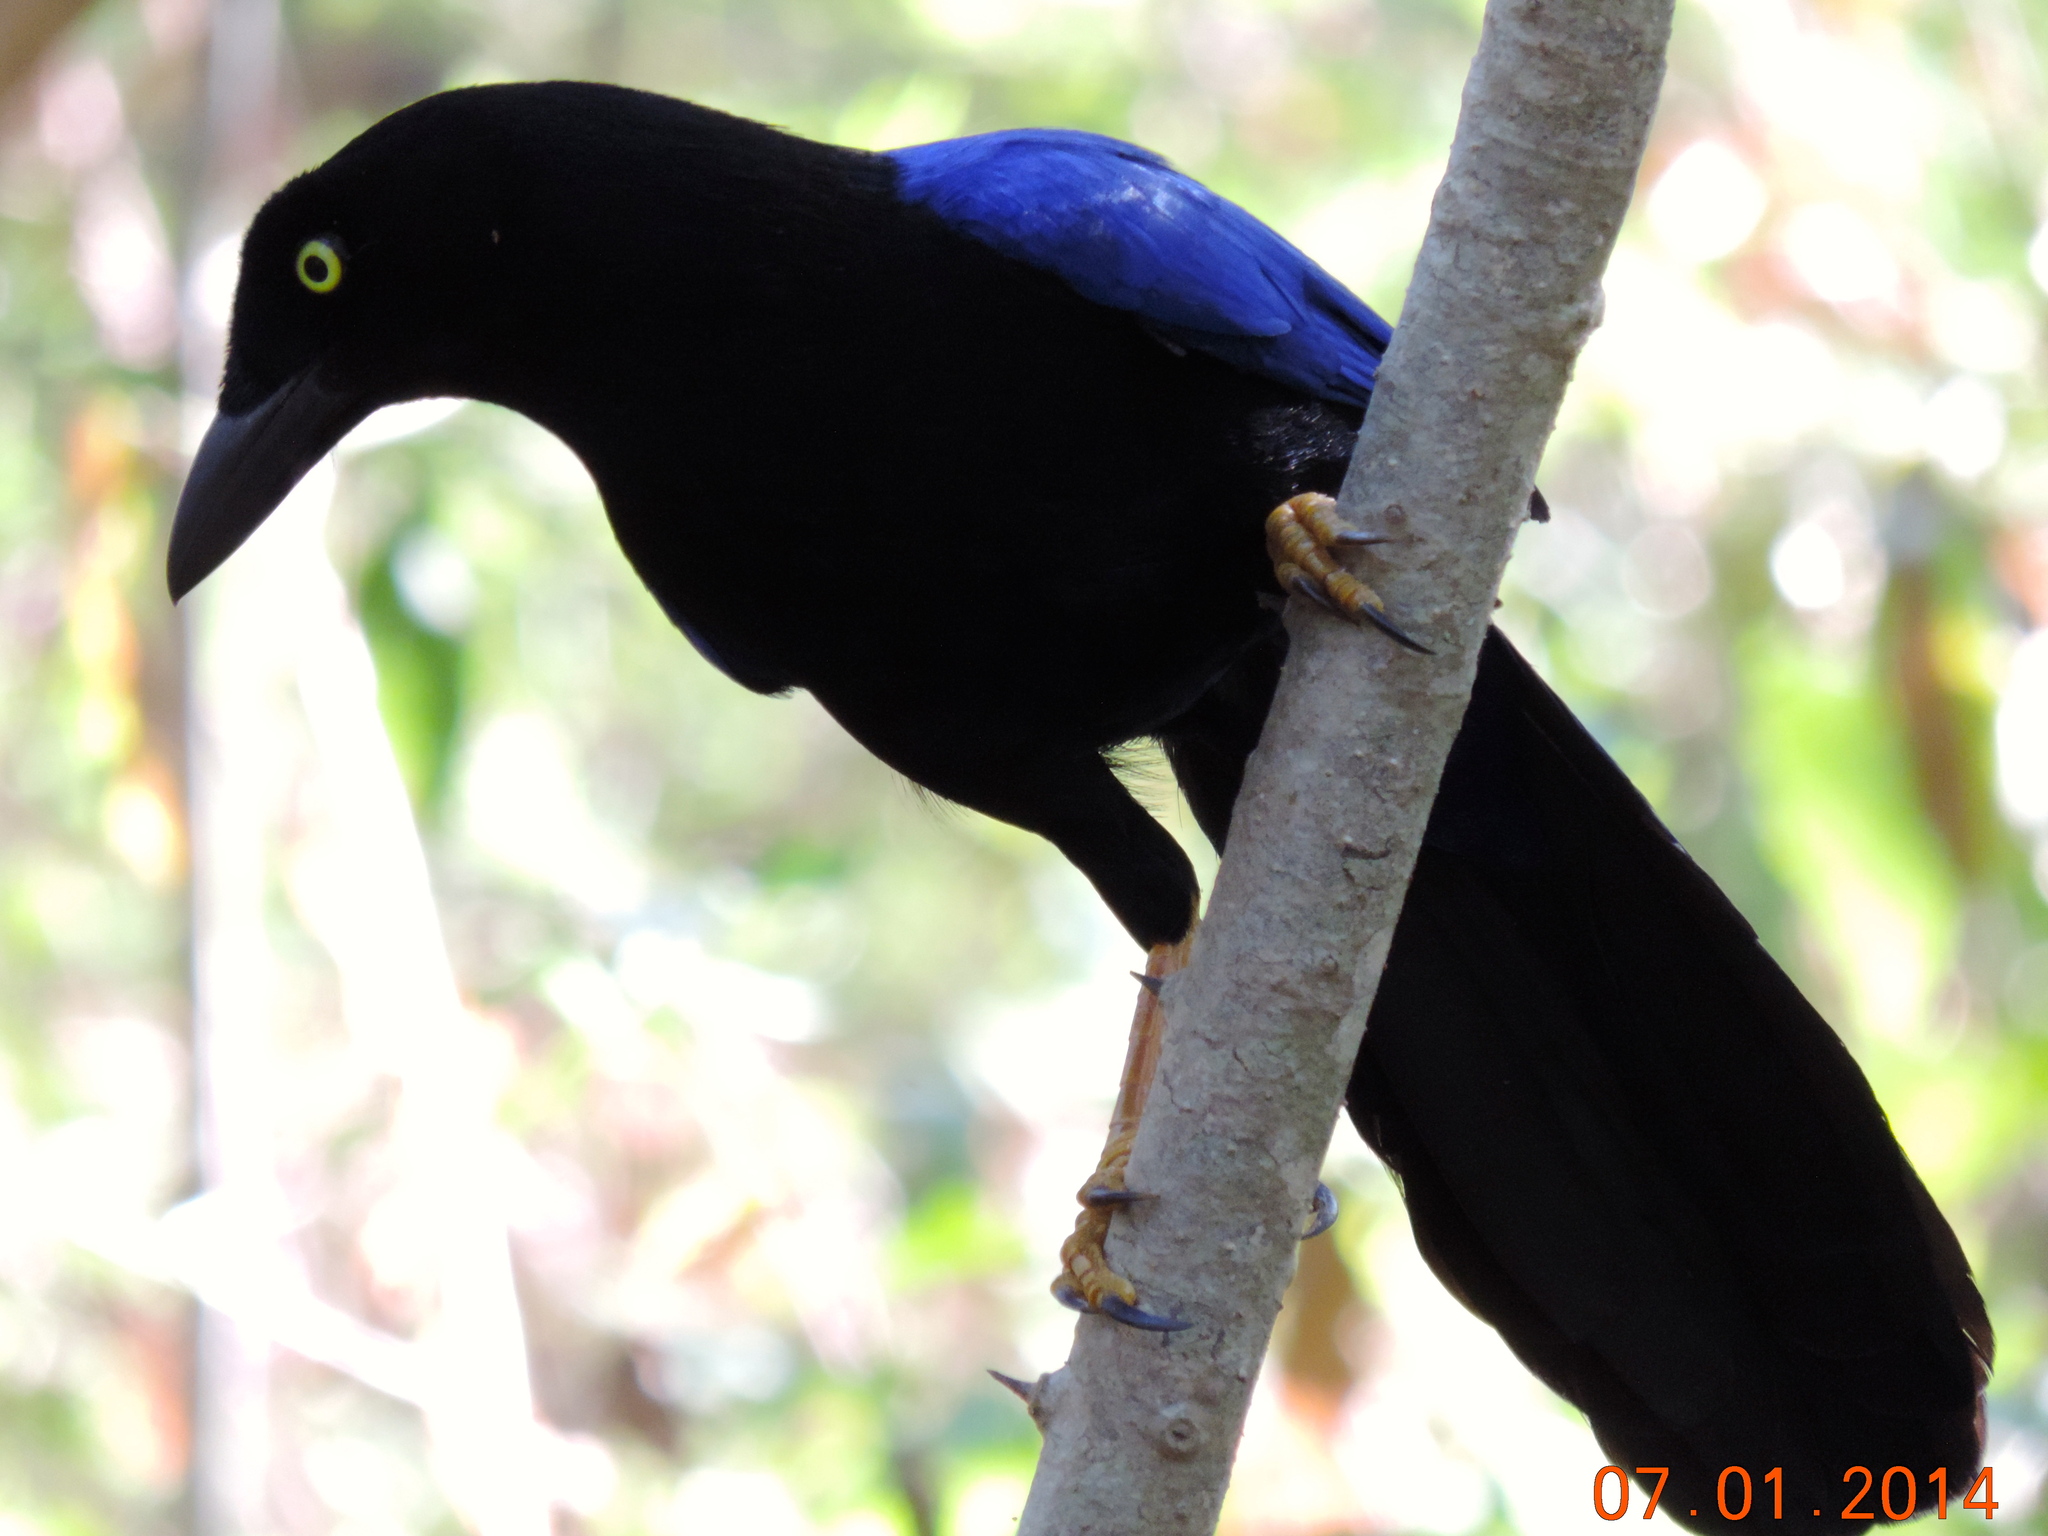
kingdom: Animalia
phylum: Chordata
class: Aves
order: Passeriformes
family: Corvidae
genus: Cyanocorax
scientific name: Cyanocorax beecheii
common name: Purplish-backed jay
